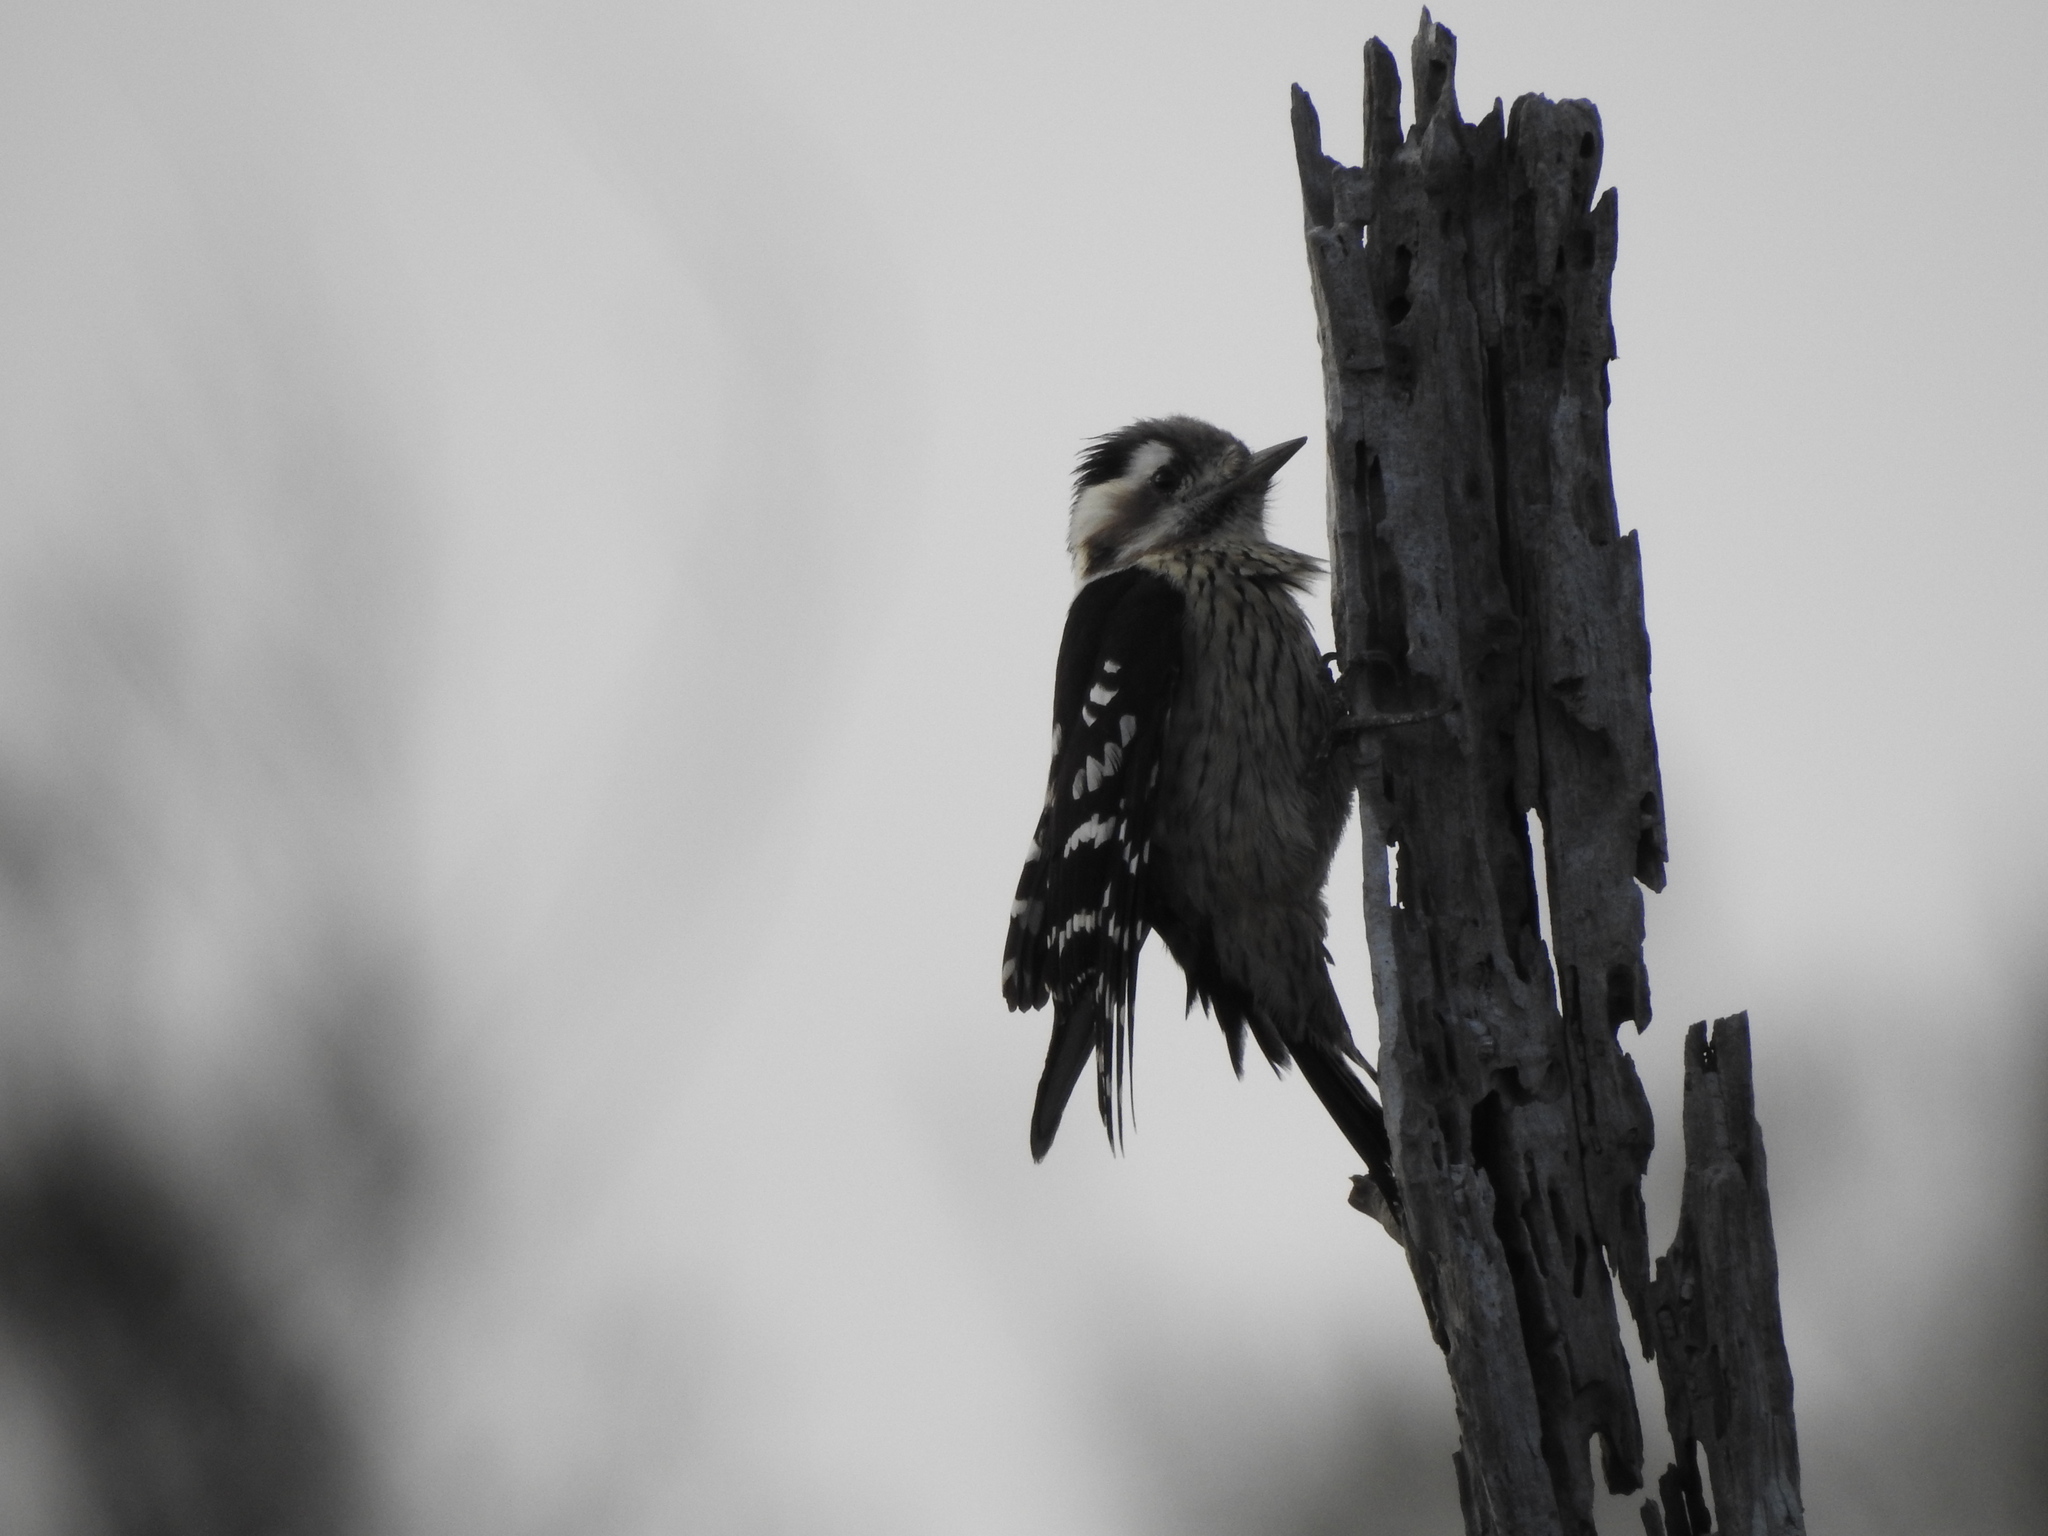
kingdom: Animalia
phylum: Chordata
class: Aves
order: Piciformes
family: Picidae
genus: Yungipicus
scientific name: Yungipicus canicapillus
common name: Grey-capped pygmy woodpecker
